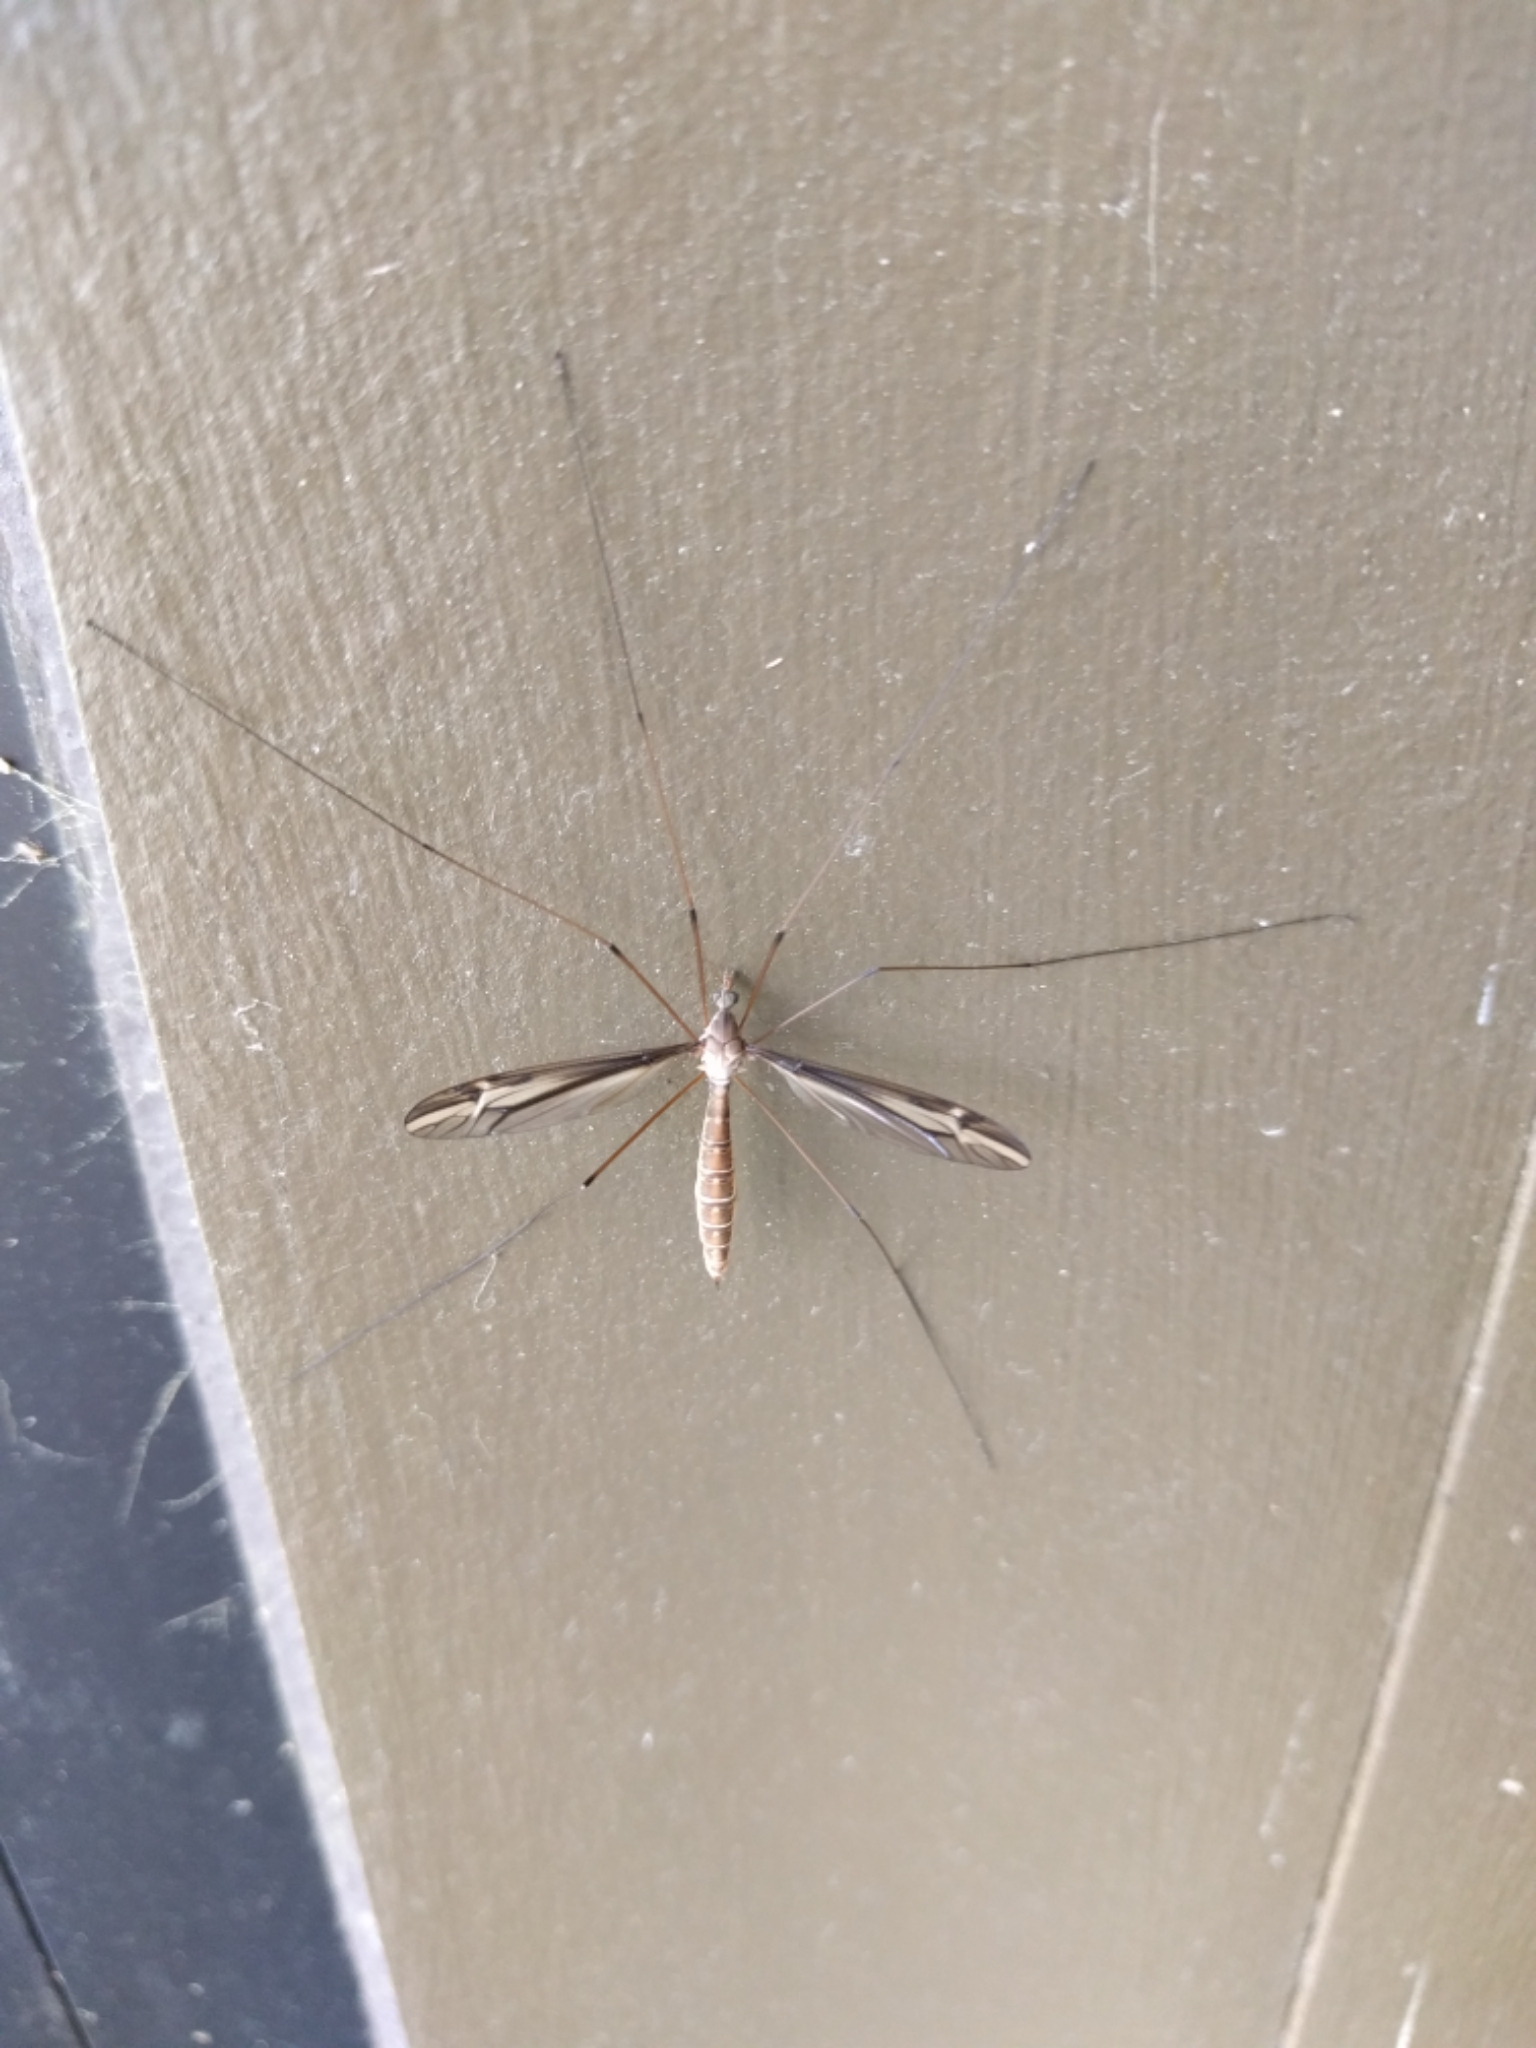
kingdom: Animalia
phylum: Arthropoda
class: Insecta
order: Diptera
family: Tipulidae
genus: Tipula
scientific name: Tipula furca
